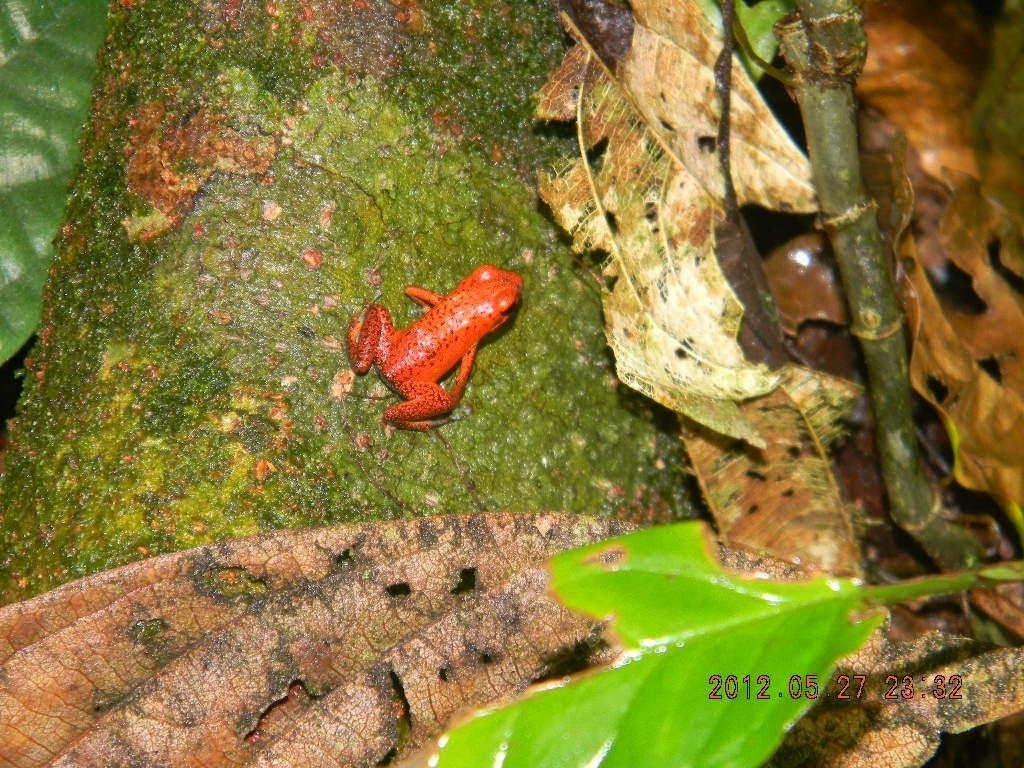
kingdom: Animalia
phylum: Chordata
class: Amphibia
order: Anura
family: Dendrobatidae
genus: Oophaga
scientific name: Oophaga pumilio
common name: Flaming poison frog
